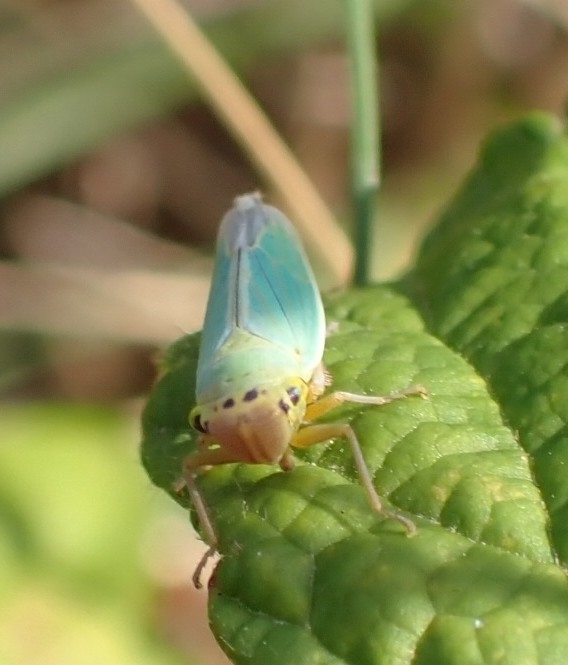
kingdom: Animalia
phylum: Arthropoda
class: Insecta
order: Hemiptera
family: Cicadellidae
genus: Cicadella
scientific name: Cicadella viridis
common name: Leafhopper
